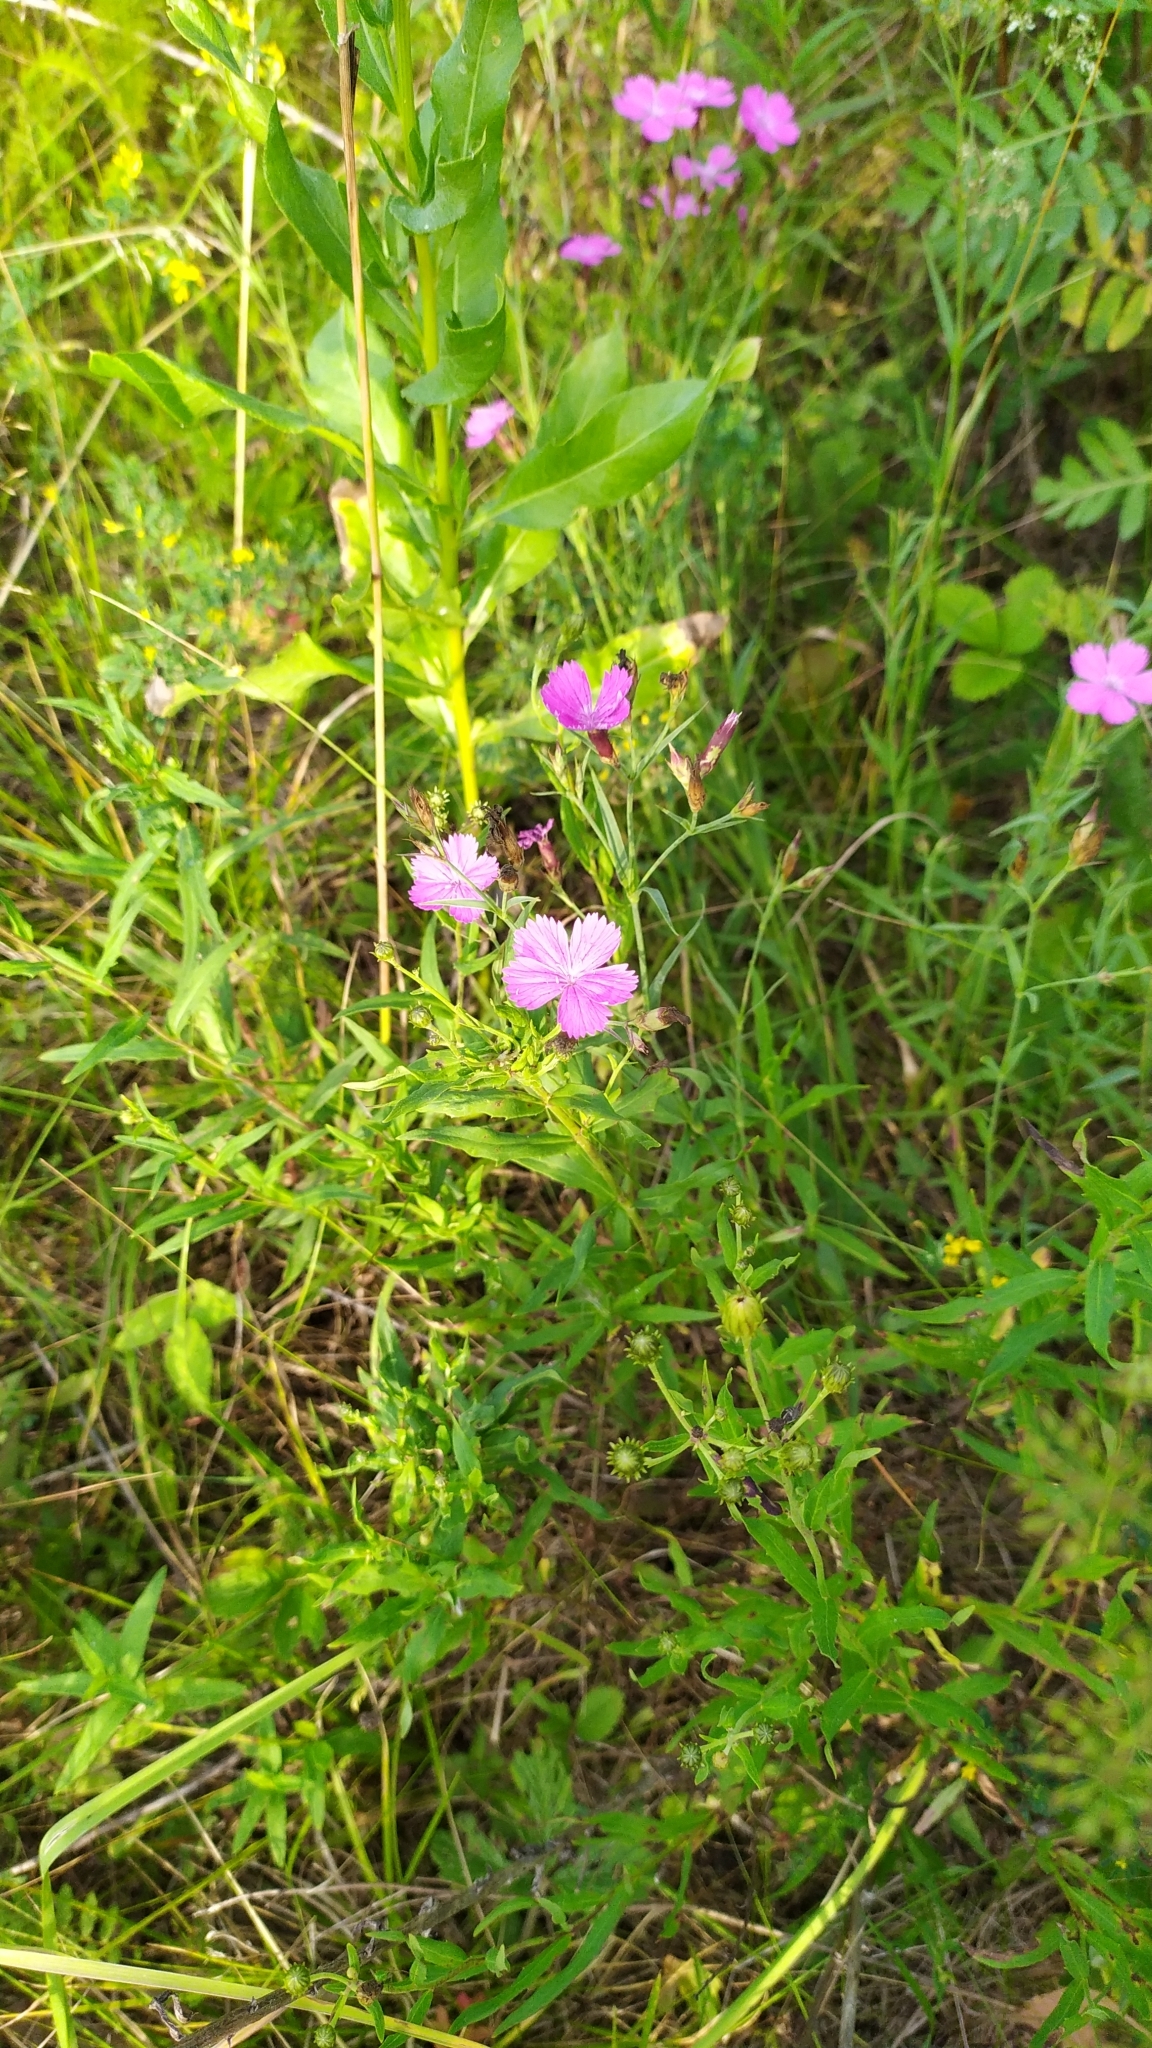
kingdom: Plantae
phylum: Tracheophyta
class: Magnoliopsida
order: Caryophyllales
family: Caryophyllaceae
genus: Dianthus
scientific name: Dianthus chinensis
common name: Rainbow pink
